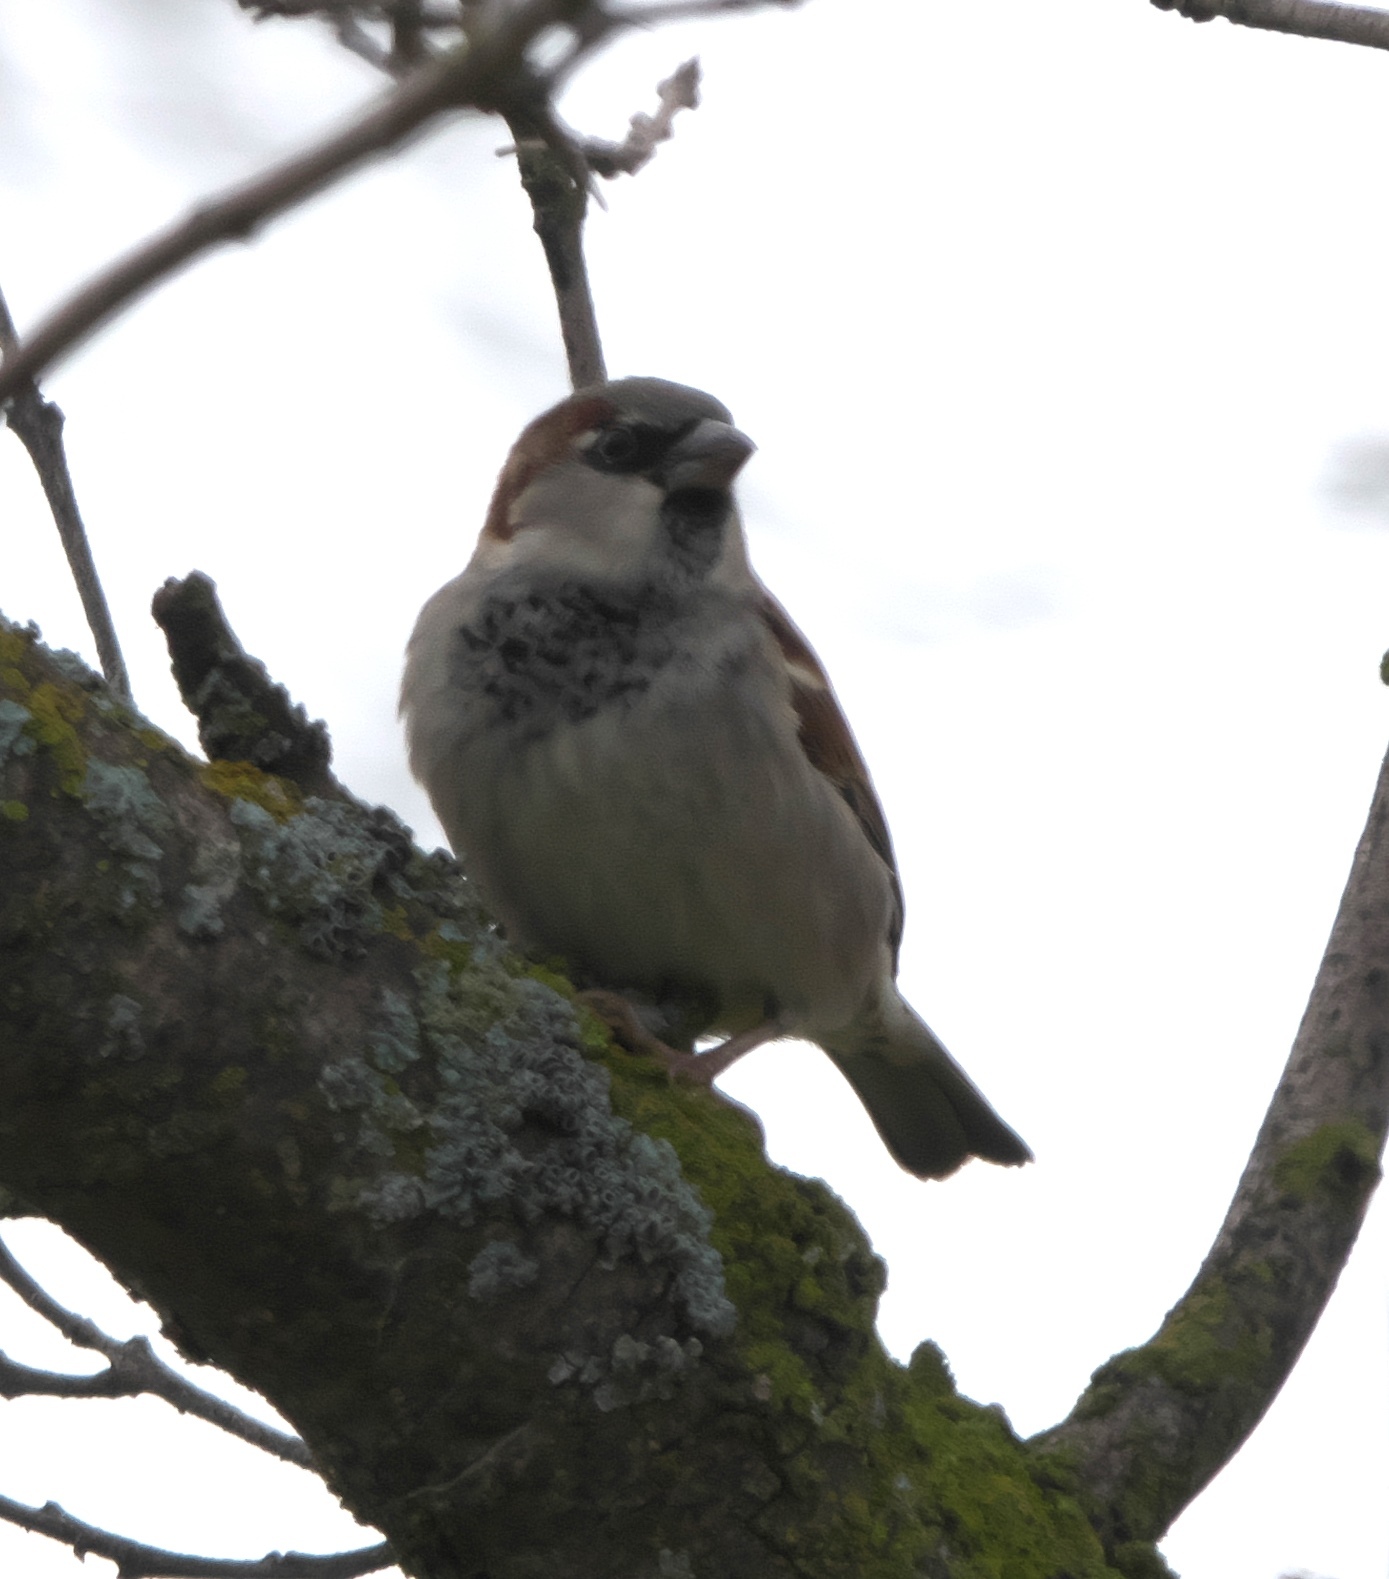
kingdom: Animalia
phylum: Chordata
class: Aves
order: Passeriformes
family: Passeridae
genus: Passer
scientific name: Passer domesticus
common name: House sparrow
